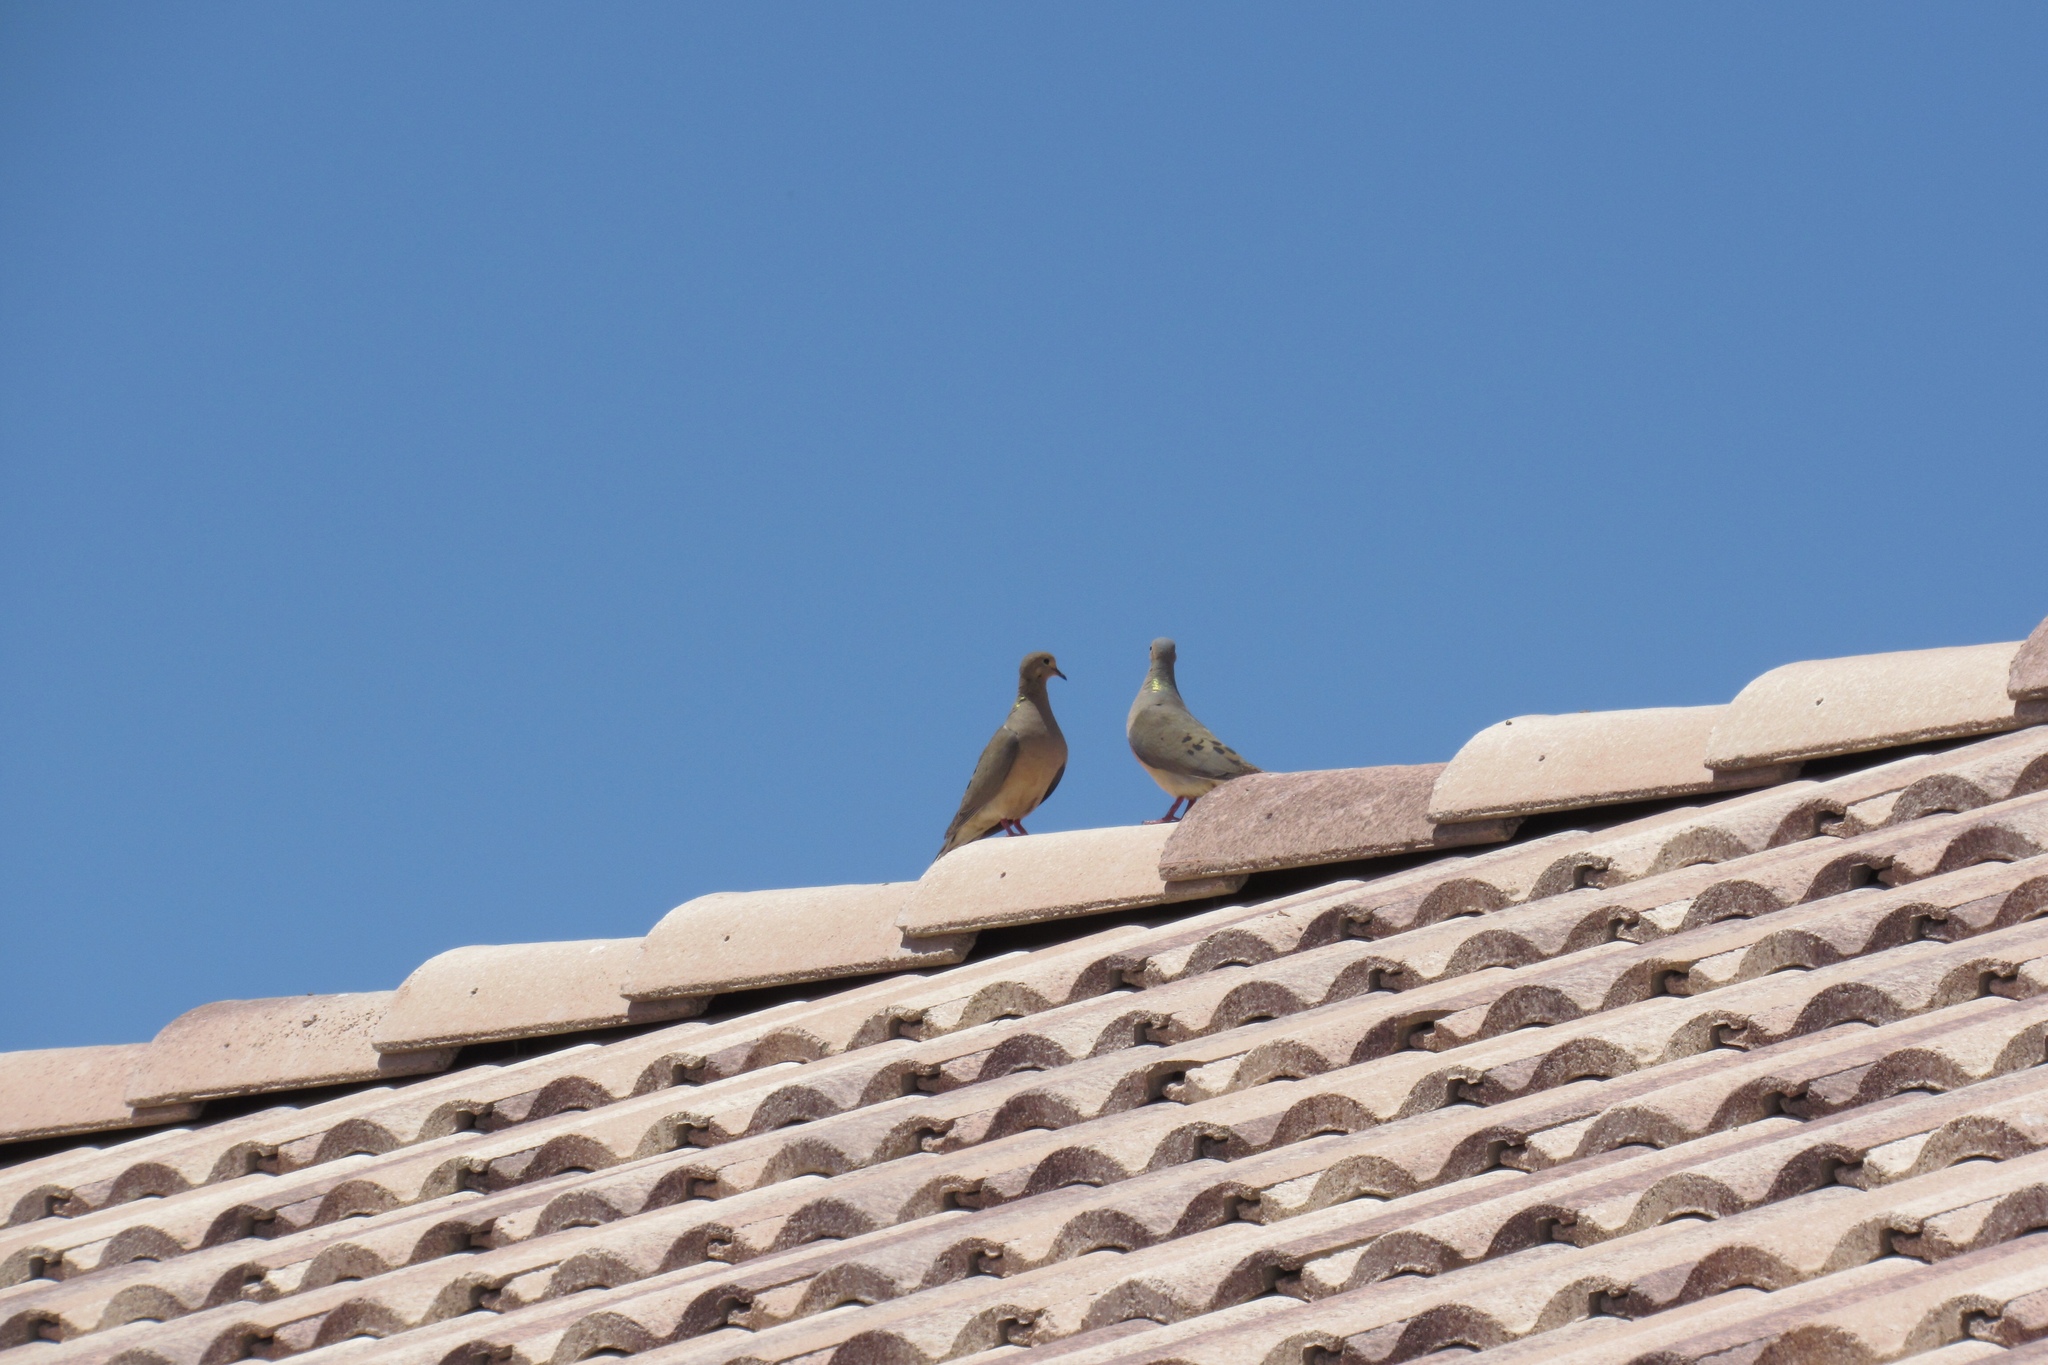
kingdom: Animalia
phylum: Chordata
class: Aves
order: Columbiformes
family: Columbidae
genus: Zenaida
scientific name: Zenaida macroura
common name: Mourning dove
